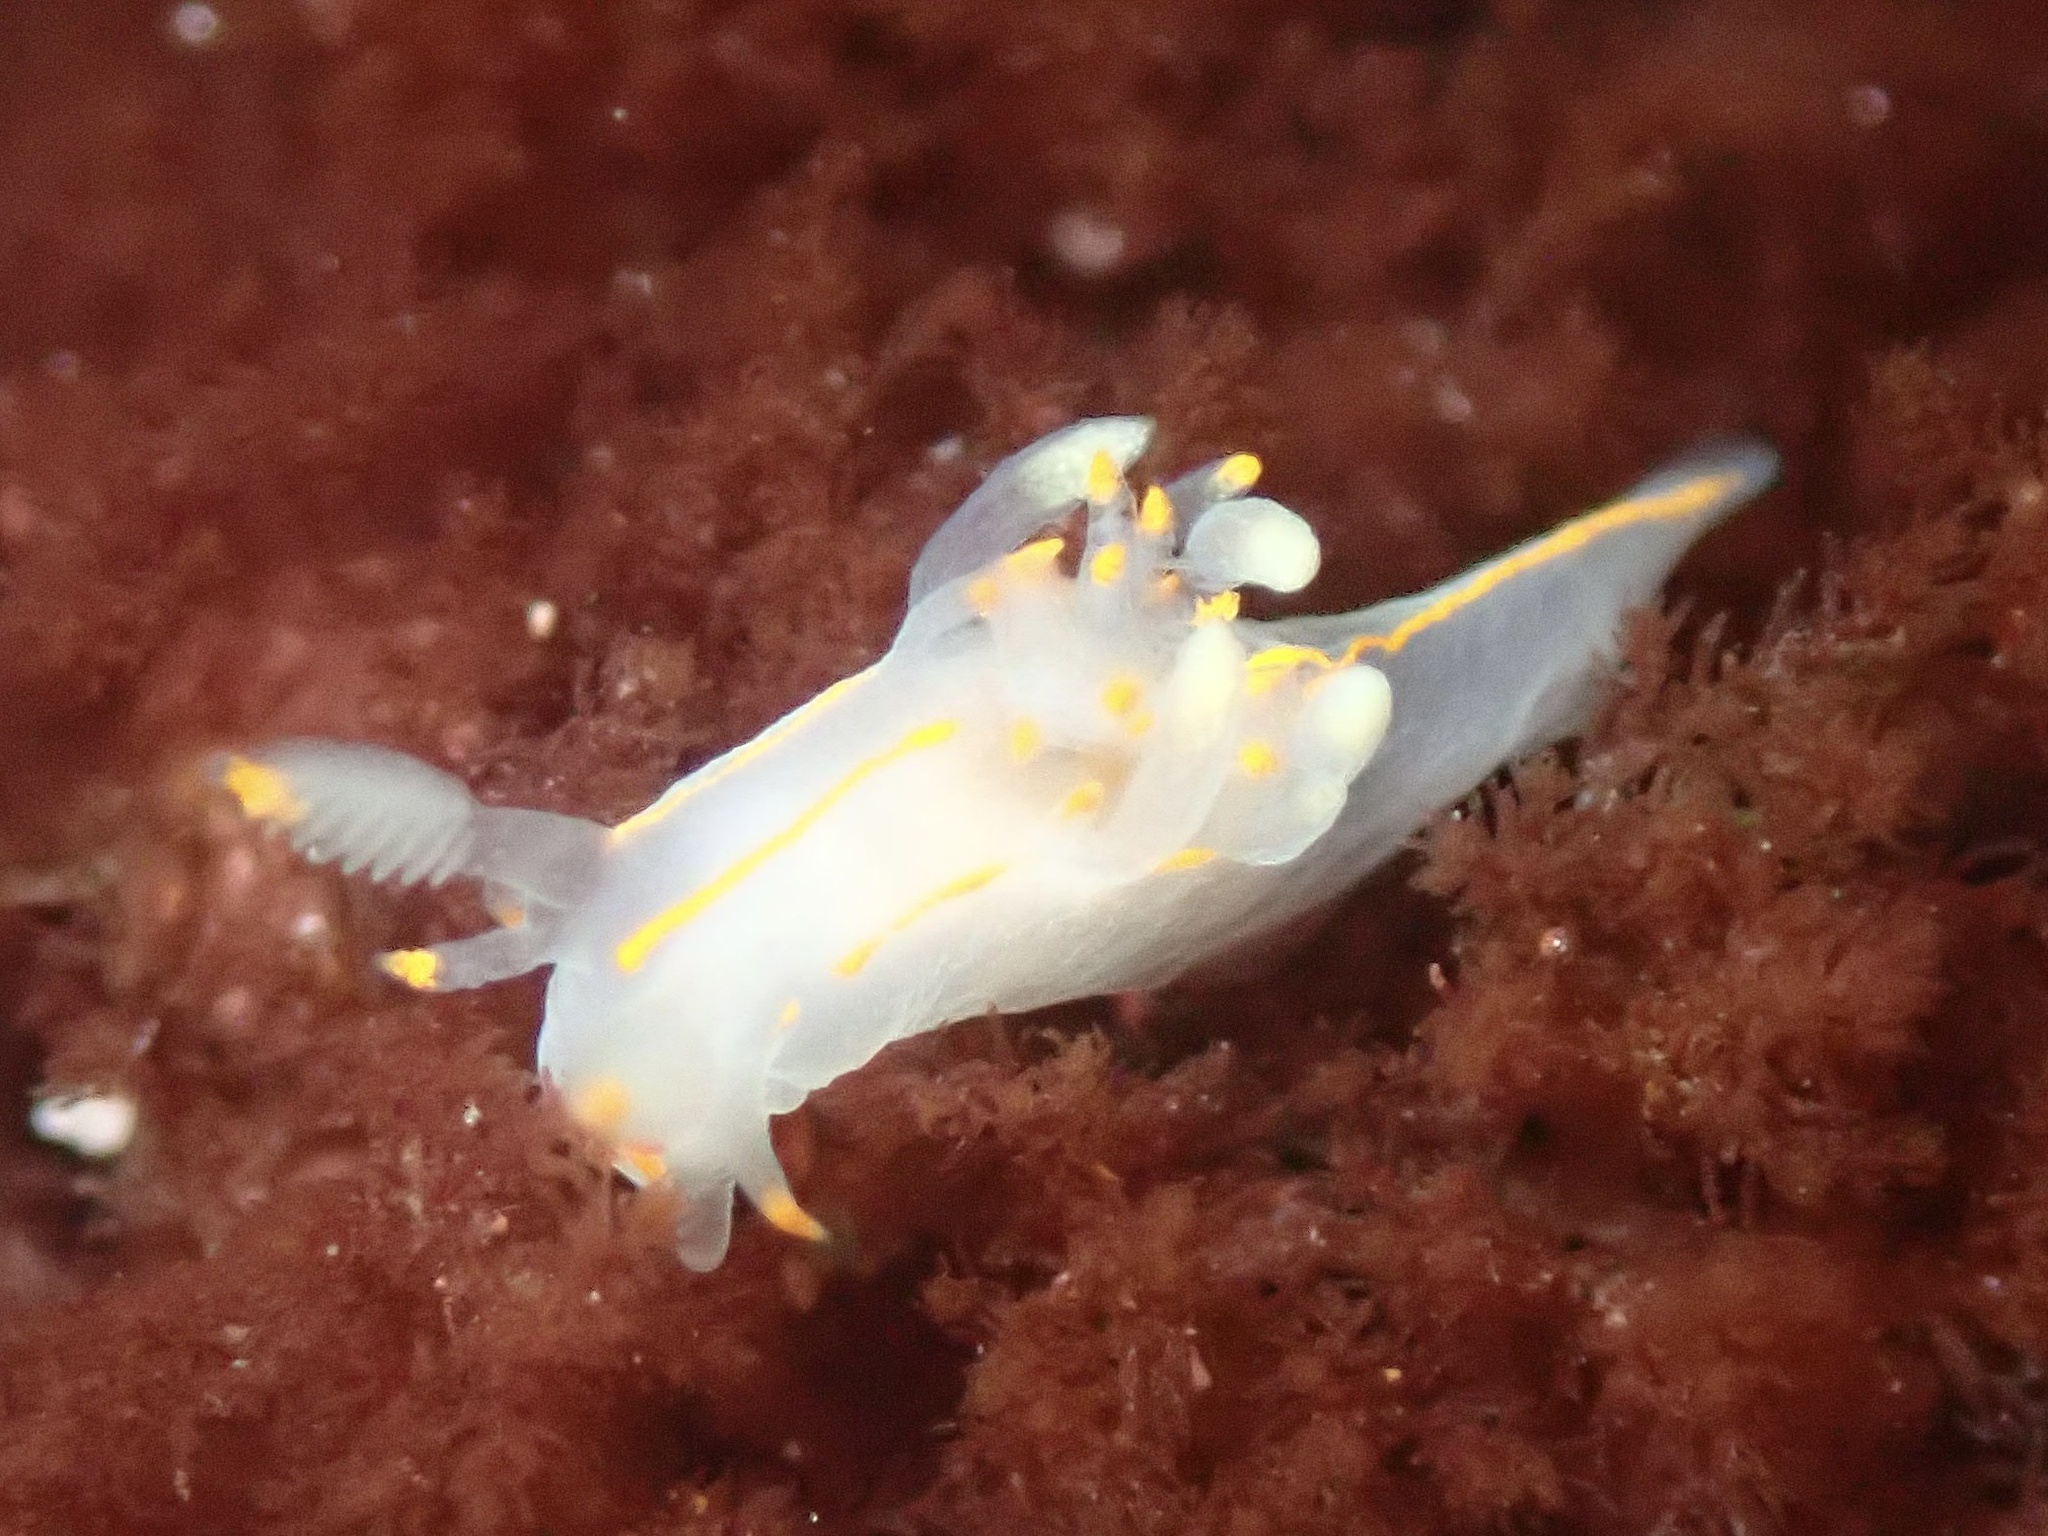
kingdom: Animalia
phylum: Mollusca
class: Gastropoda
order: Nudibranchia
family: Goniodorididae
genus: Ancula
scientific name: Ancula pacifica
